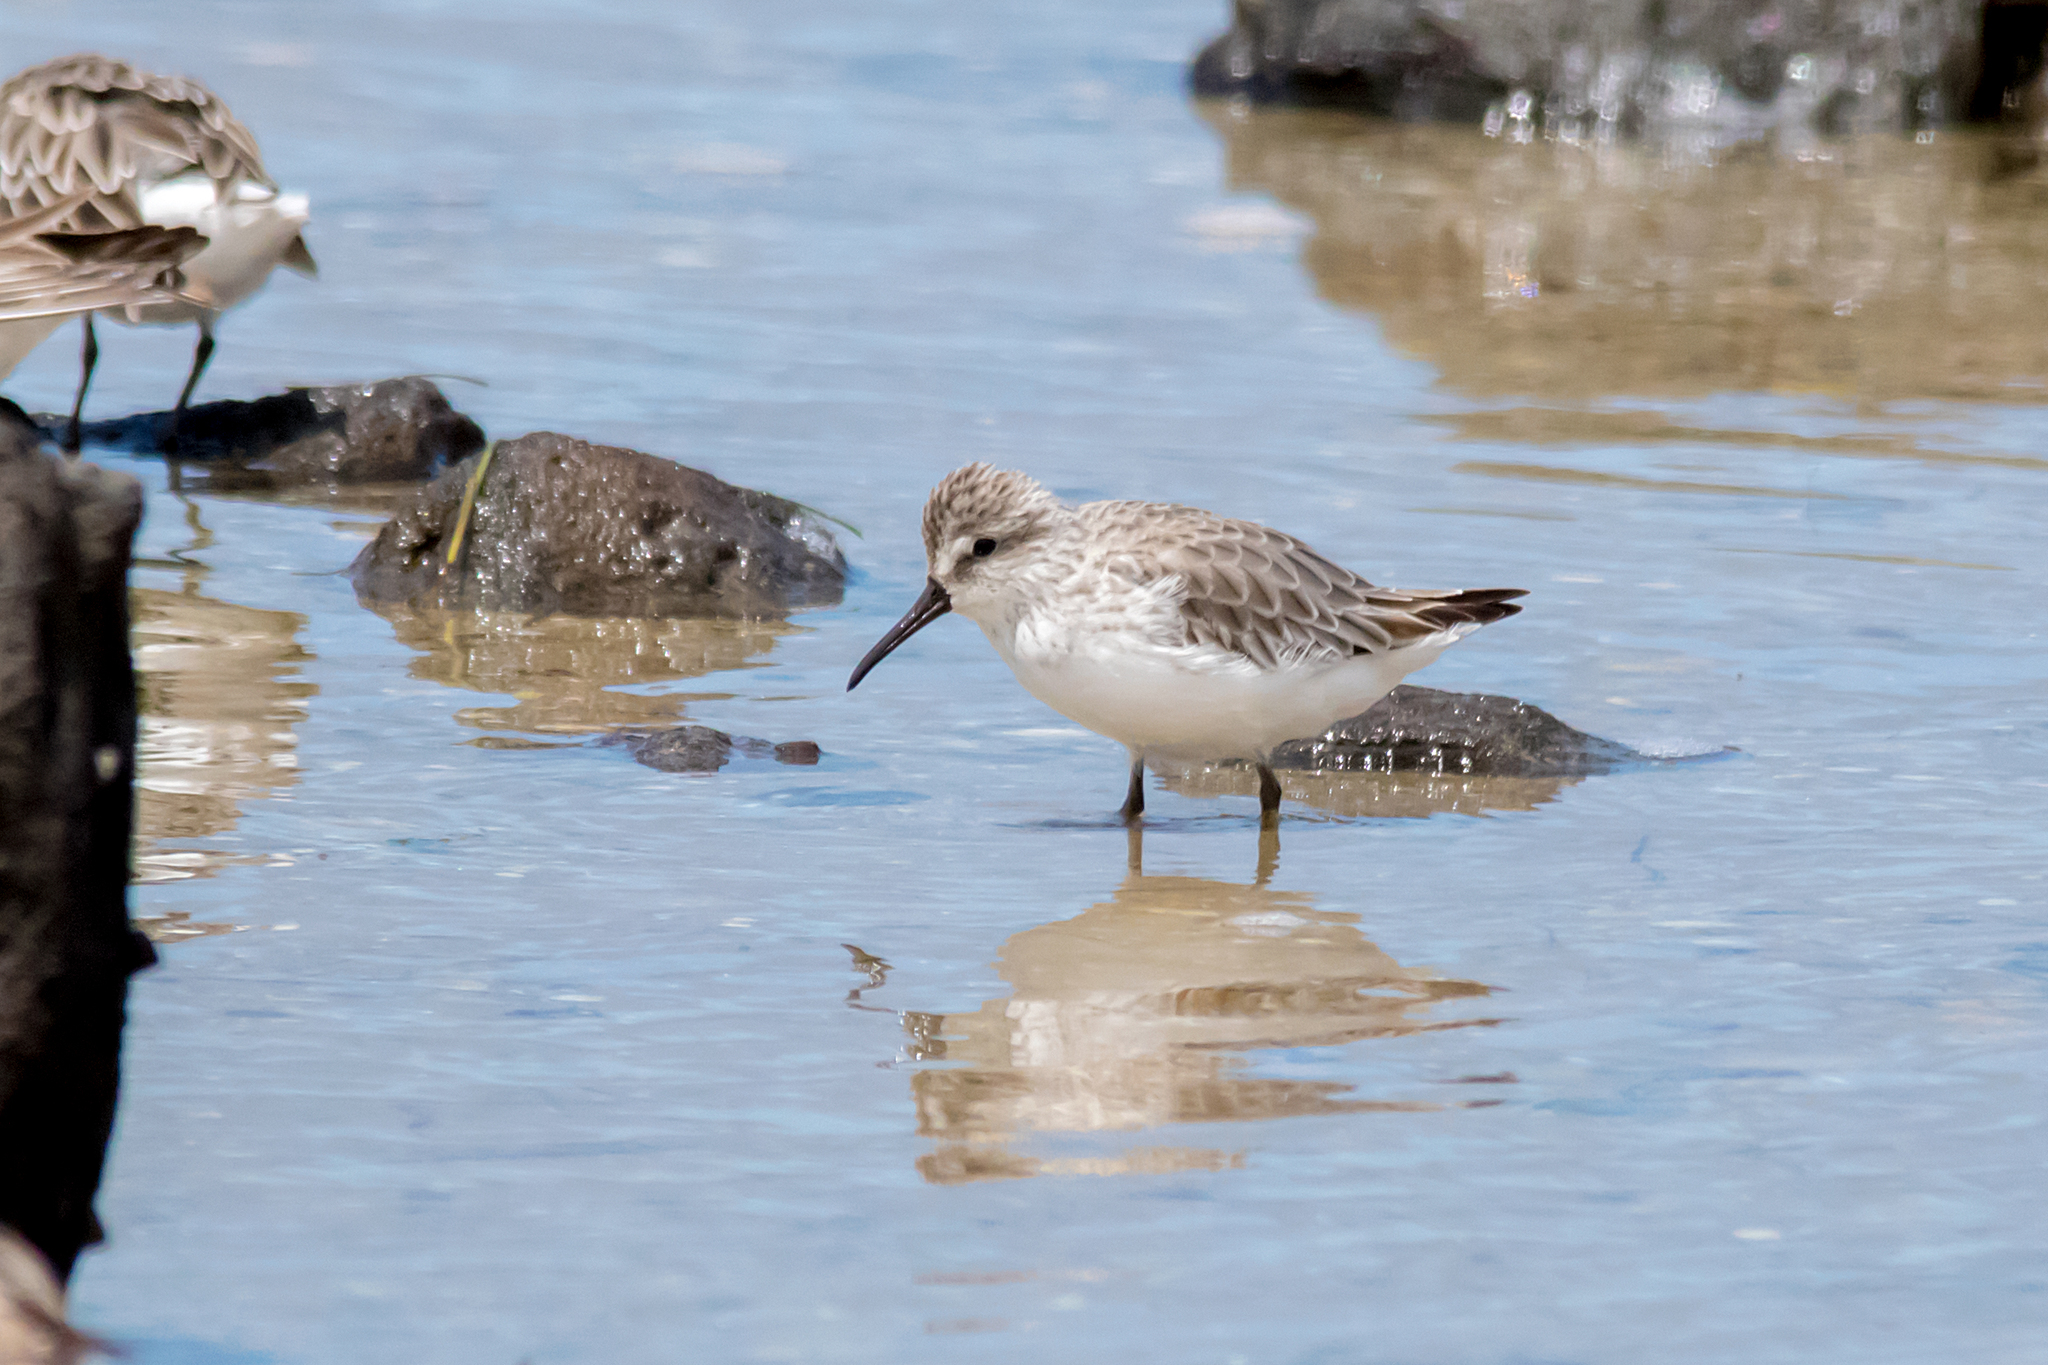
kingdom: Animalia
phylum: Chordata
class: Aves
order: Charadriiformes
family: Scolopacidae
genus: Calidris
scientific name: Calidris falcinellus
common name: Broad-billed sandpiper
